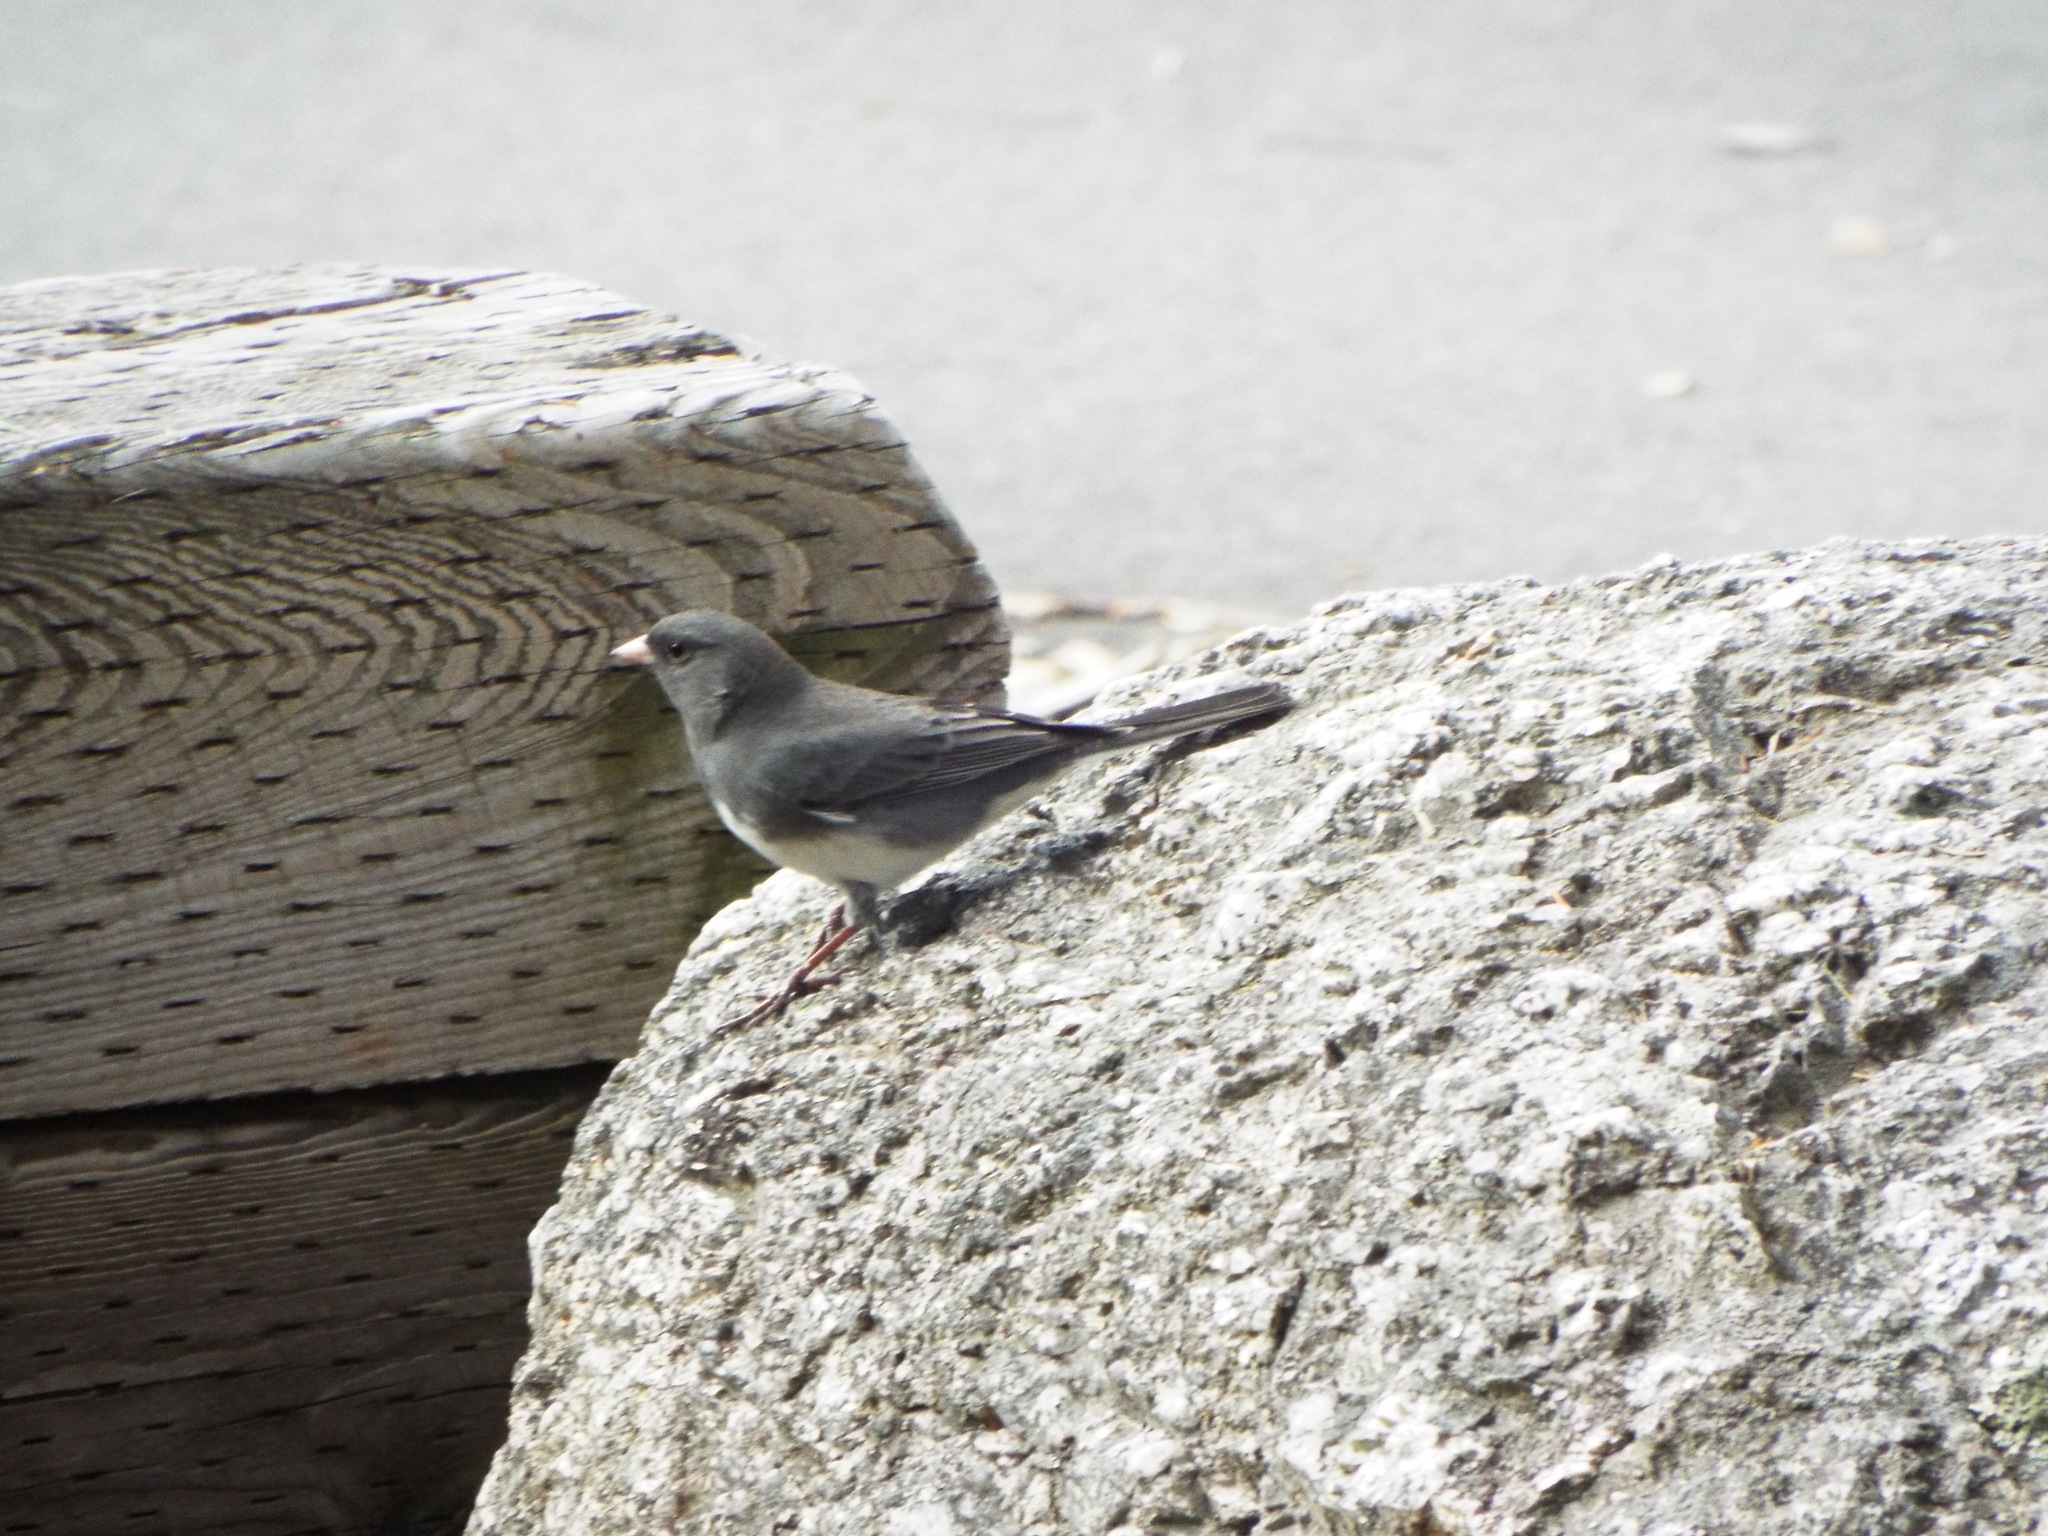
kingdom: Animalia
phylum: Chordata
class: Aves
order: Passeriformes
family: Passerellidae
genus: Junco
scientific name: Junco hyemalis
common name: Dark-eyed junco
